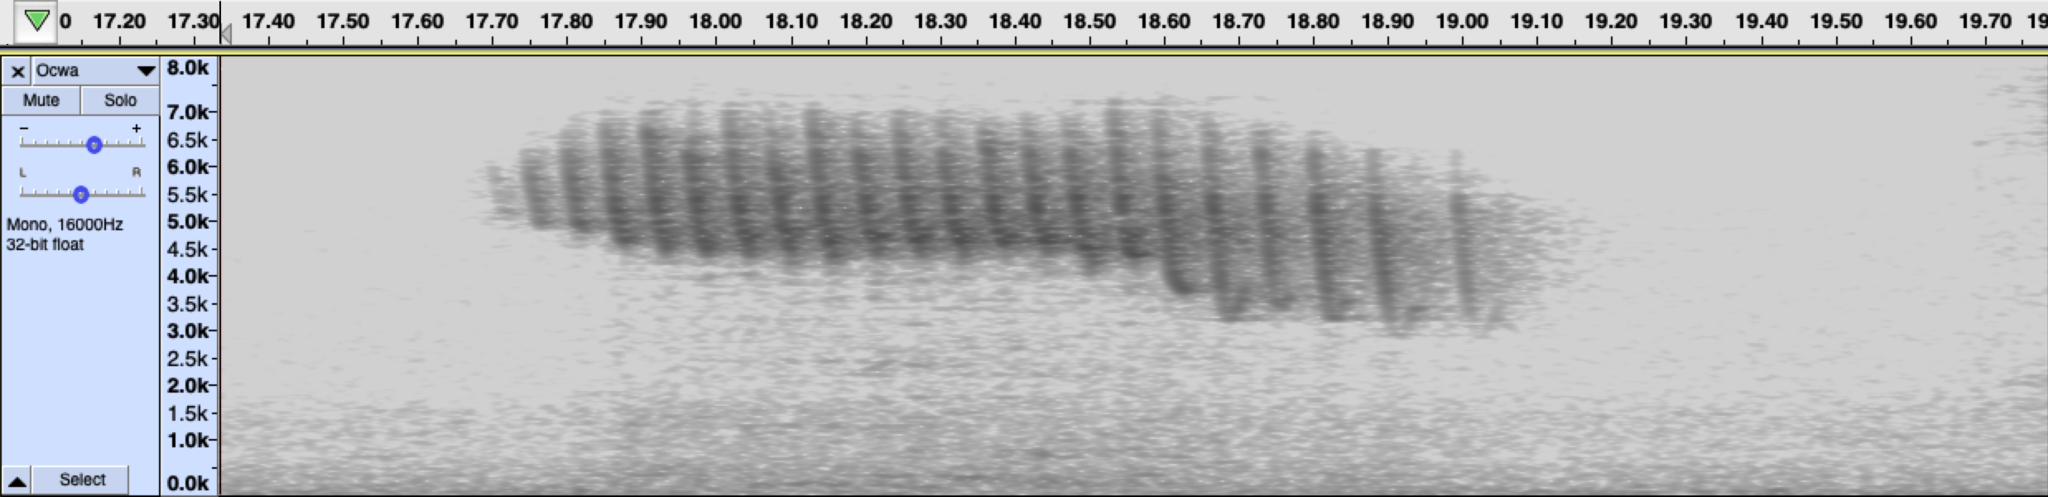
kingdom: Animalia
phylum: Chordata
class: Aves
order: Passeriformes
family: Parulidae
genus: Leiothlypis
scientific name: Leiothlypis celata
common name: Orange-crowned warbler
